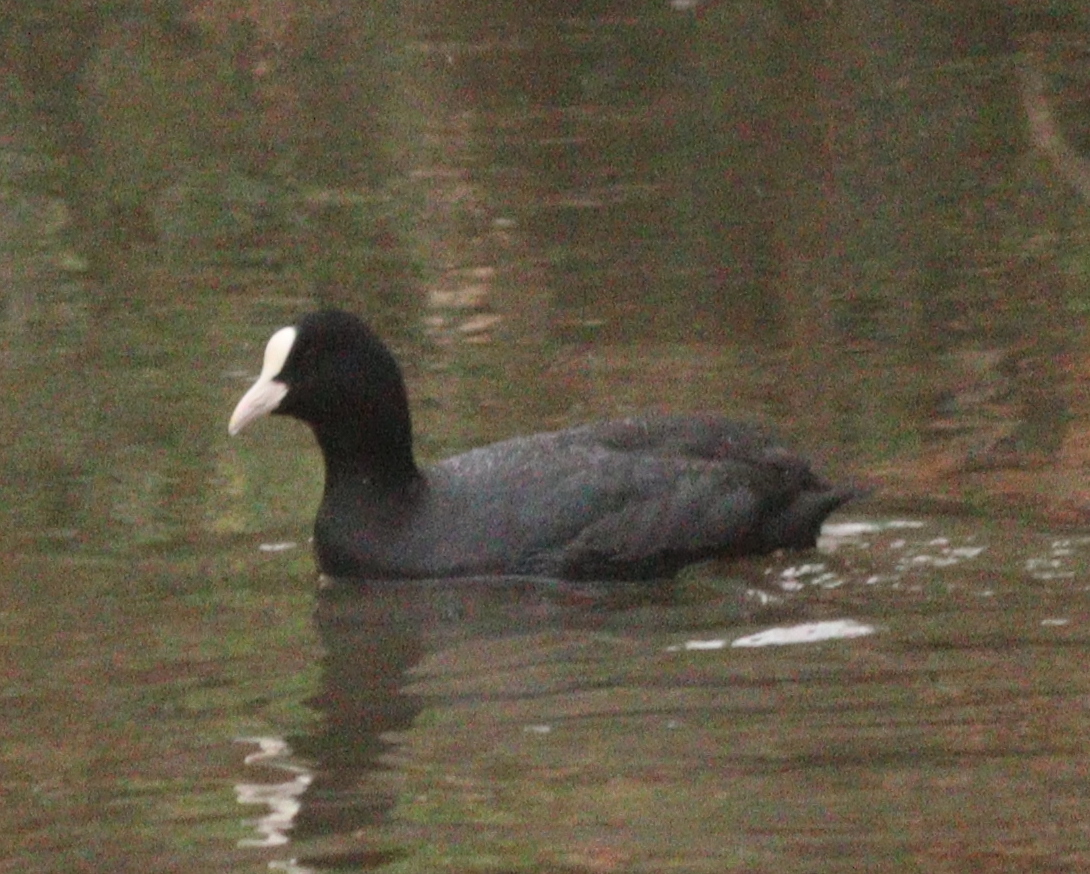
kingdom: Animalia
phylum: Chordata
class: Aves
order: Gruiformes
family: Rallidae
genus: Fulica
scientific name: Fulica atra
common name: Eurasian coot
